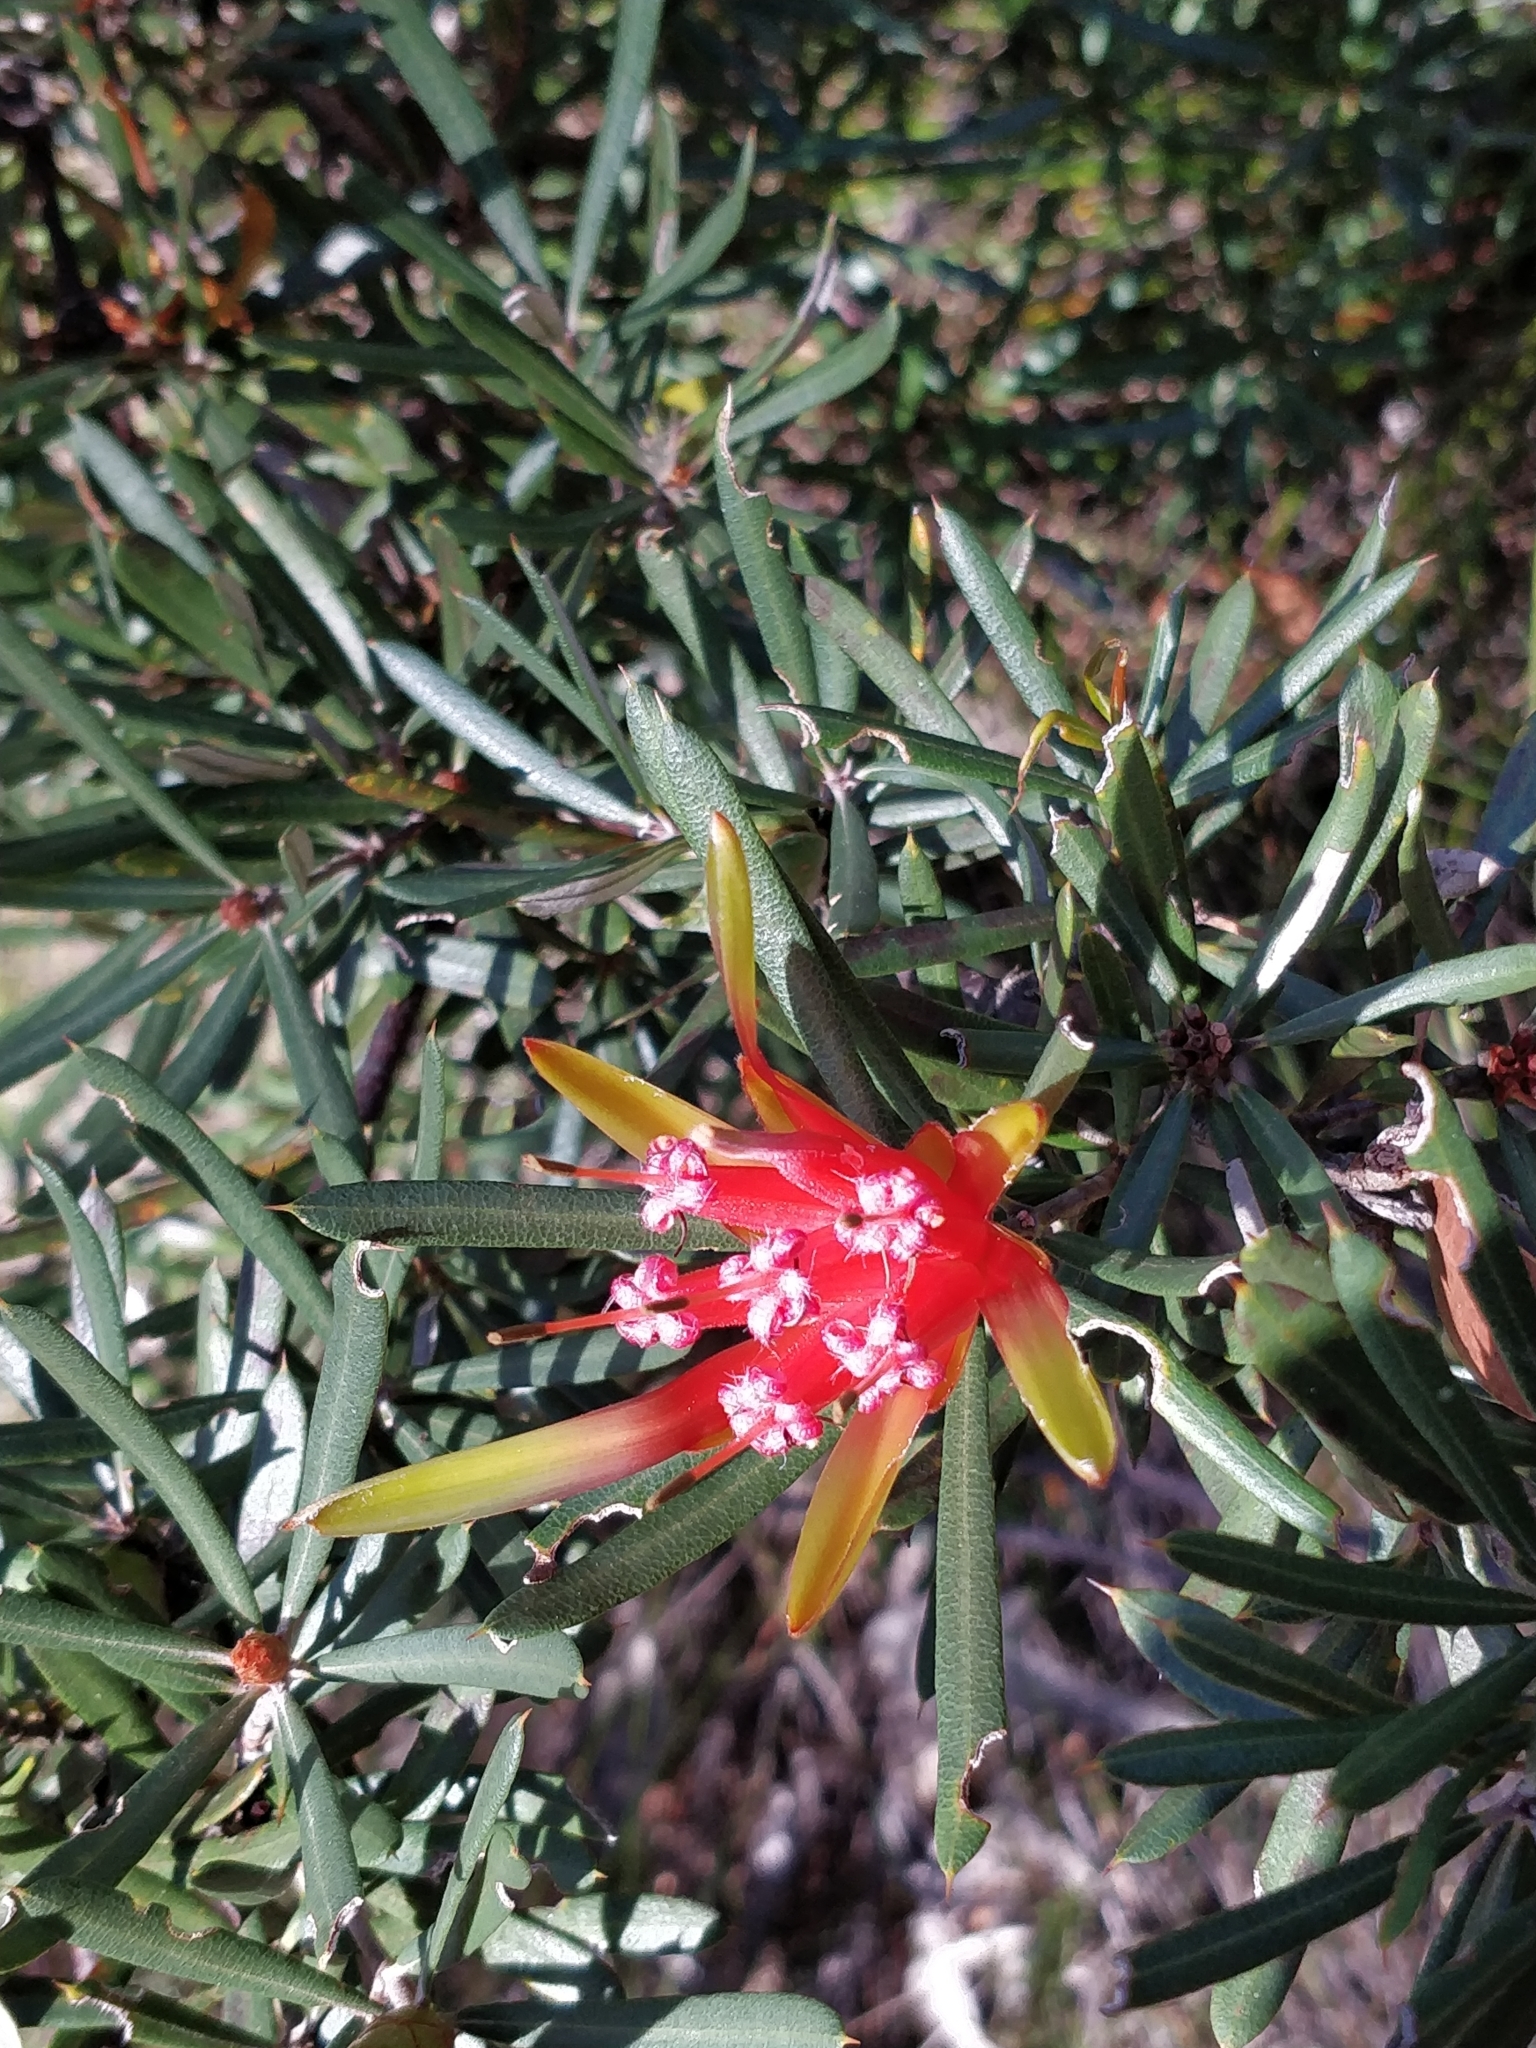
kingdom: Plantae
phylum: Tracheophyta
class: Magnoliopsida
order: Proteales
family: Proteaceae
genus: Lambertia
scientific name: Lambertia formosa
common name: Mountain-devil
